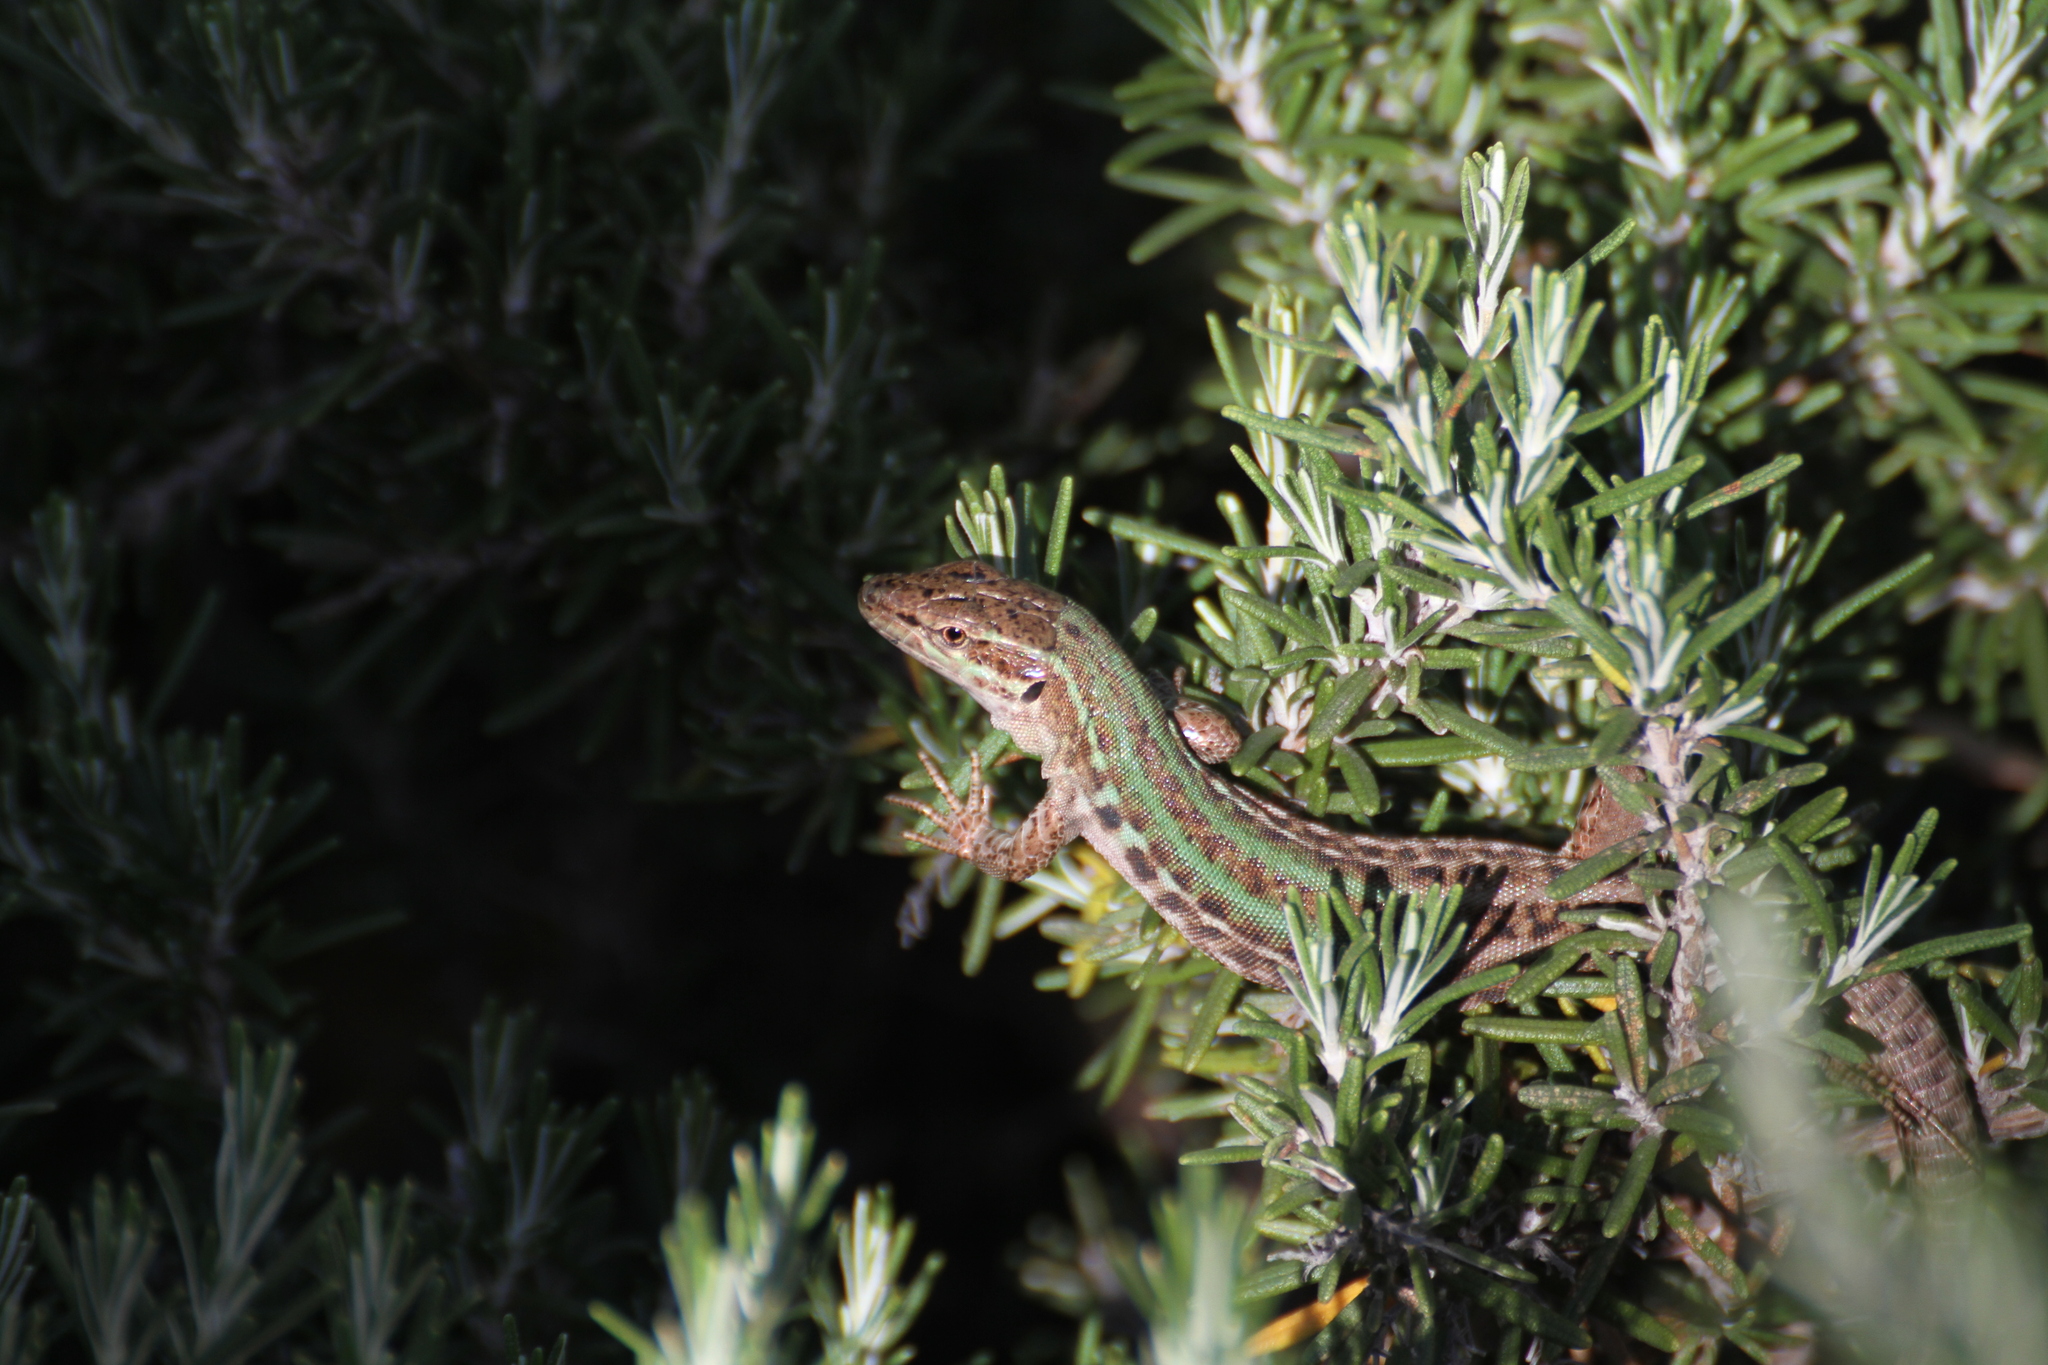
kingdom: Animalia
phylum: Chordata
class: Squamata
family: Lacertidae
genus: Podarcis
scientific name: Podarcis siculus
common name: Italian wall lizard
